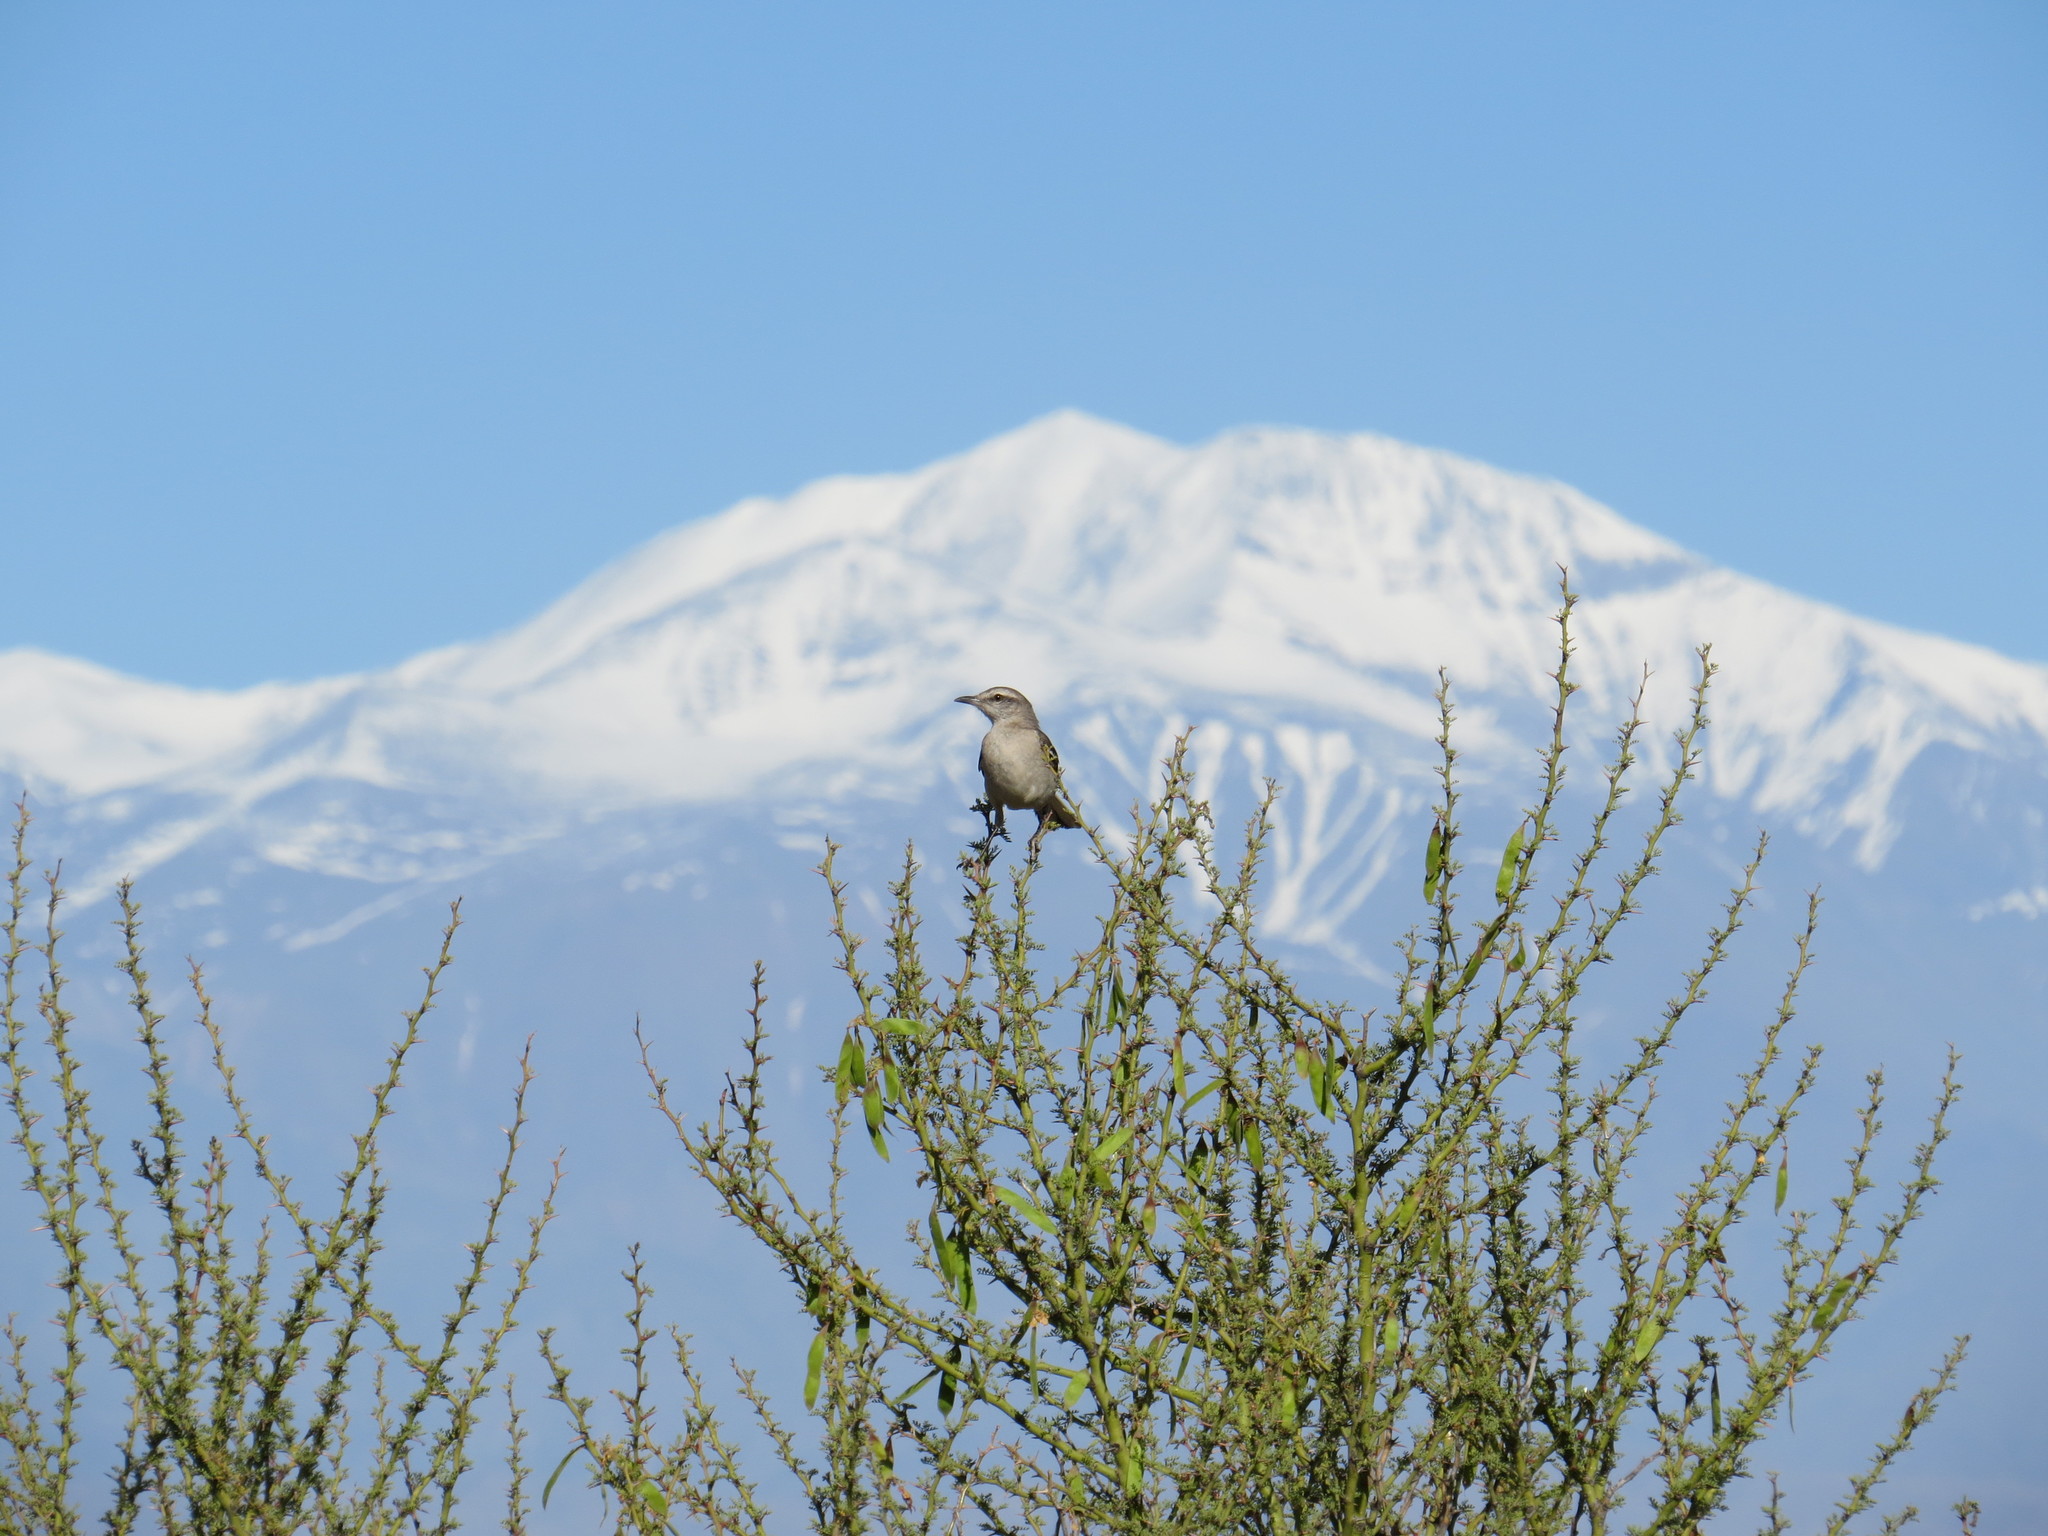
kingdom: Animalia
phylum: Chordata
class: Aves
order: Passeriformes
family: Mimidae
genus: Mimus
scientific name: Mimus triurus
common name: White-banded mockingbird
